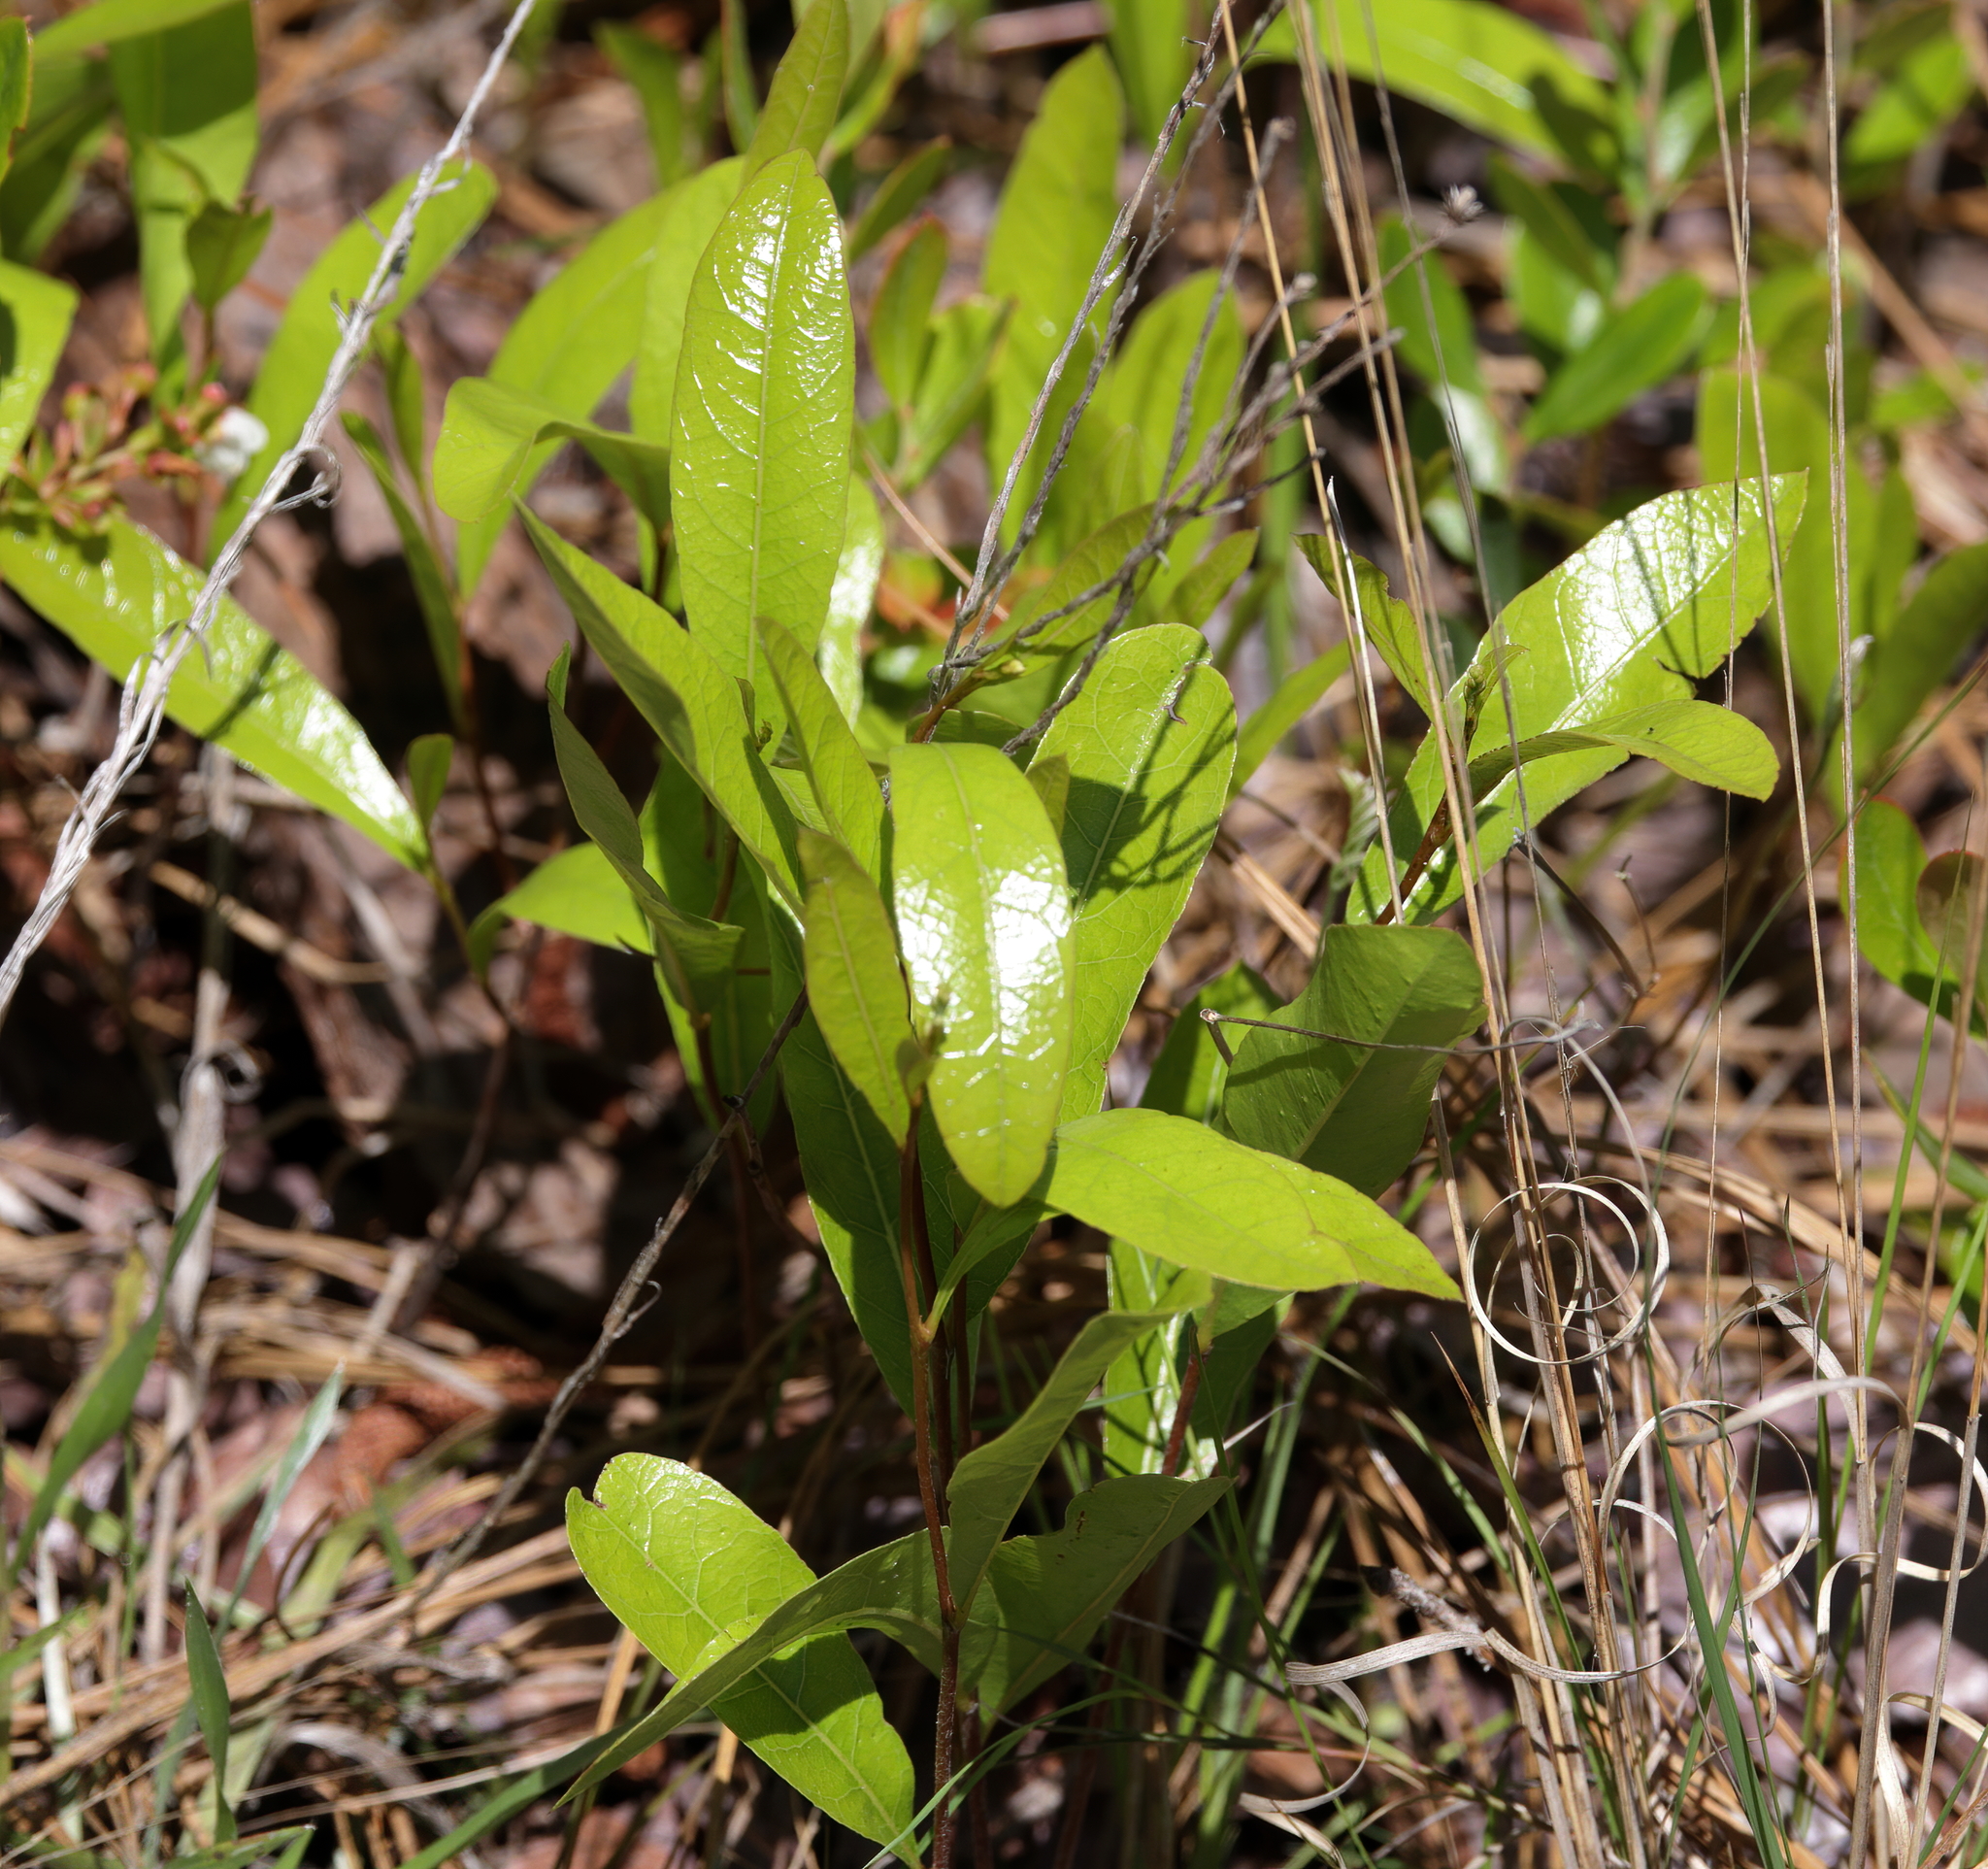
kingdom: Plantae
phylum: Tracheophyta
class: Magnoliopsida
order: Malpighiales
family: Chrysobalanaceae
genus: Geobalanus
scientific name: Geobalanus oblongifolius
